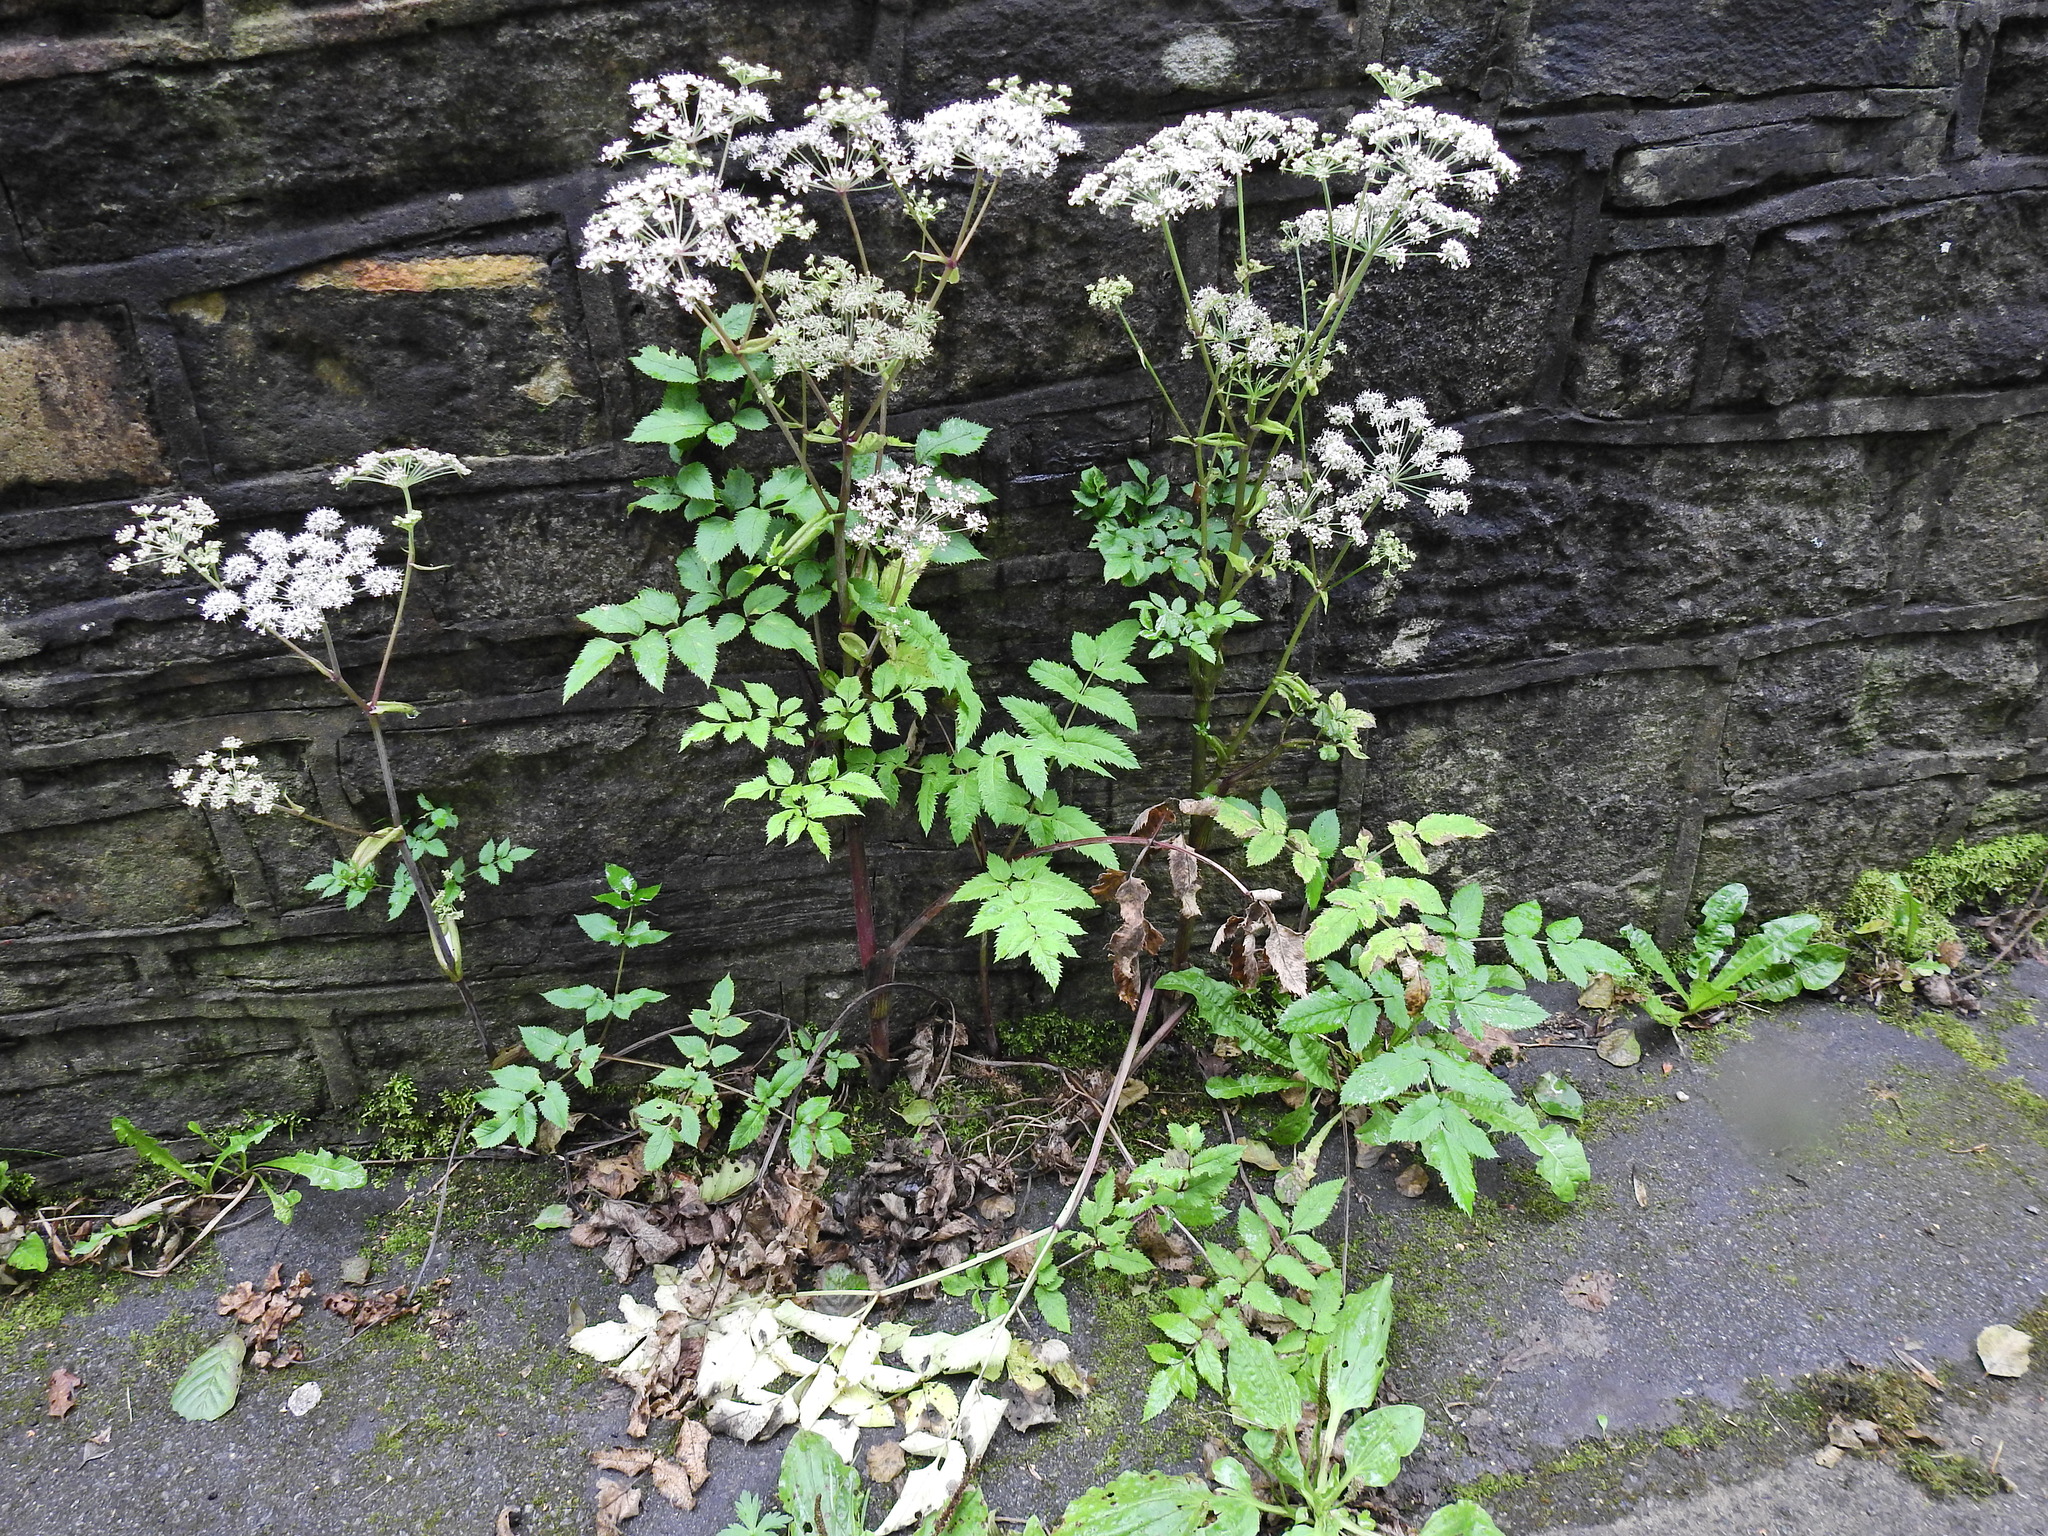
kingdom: Plantae
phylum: Tracheophyta
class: Magnoliopsida
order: Apiales
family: Apiaceae
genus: Angelica
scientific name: Angelica sylvestris
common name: Wild angelica
